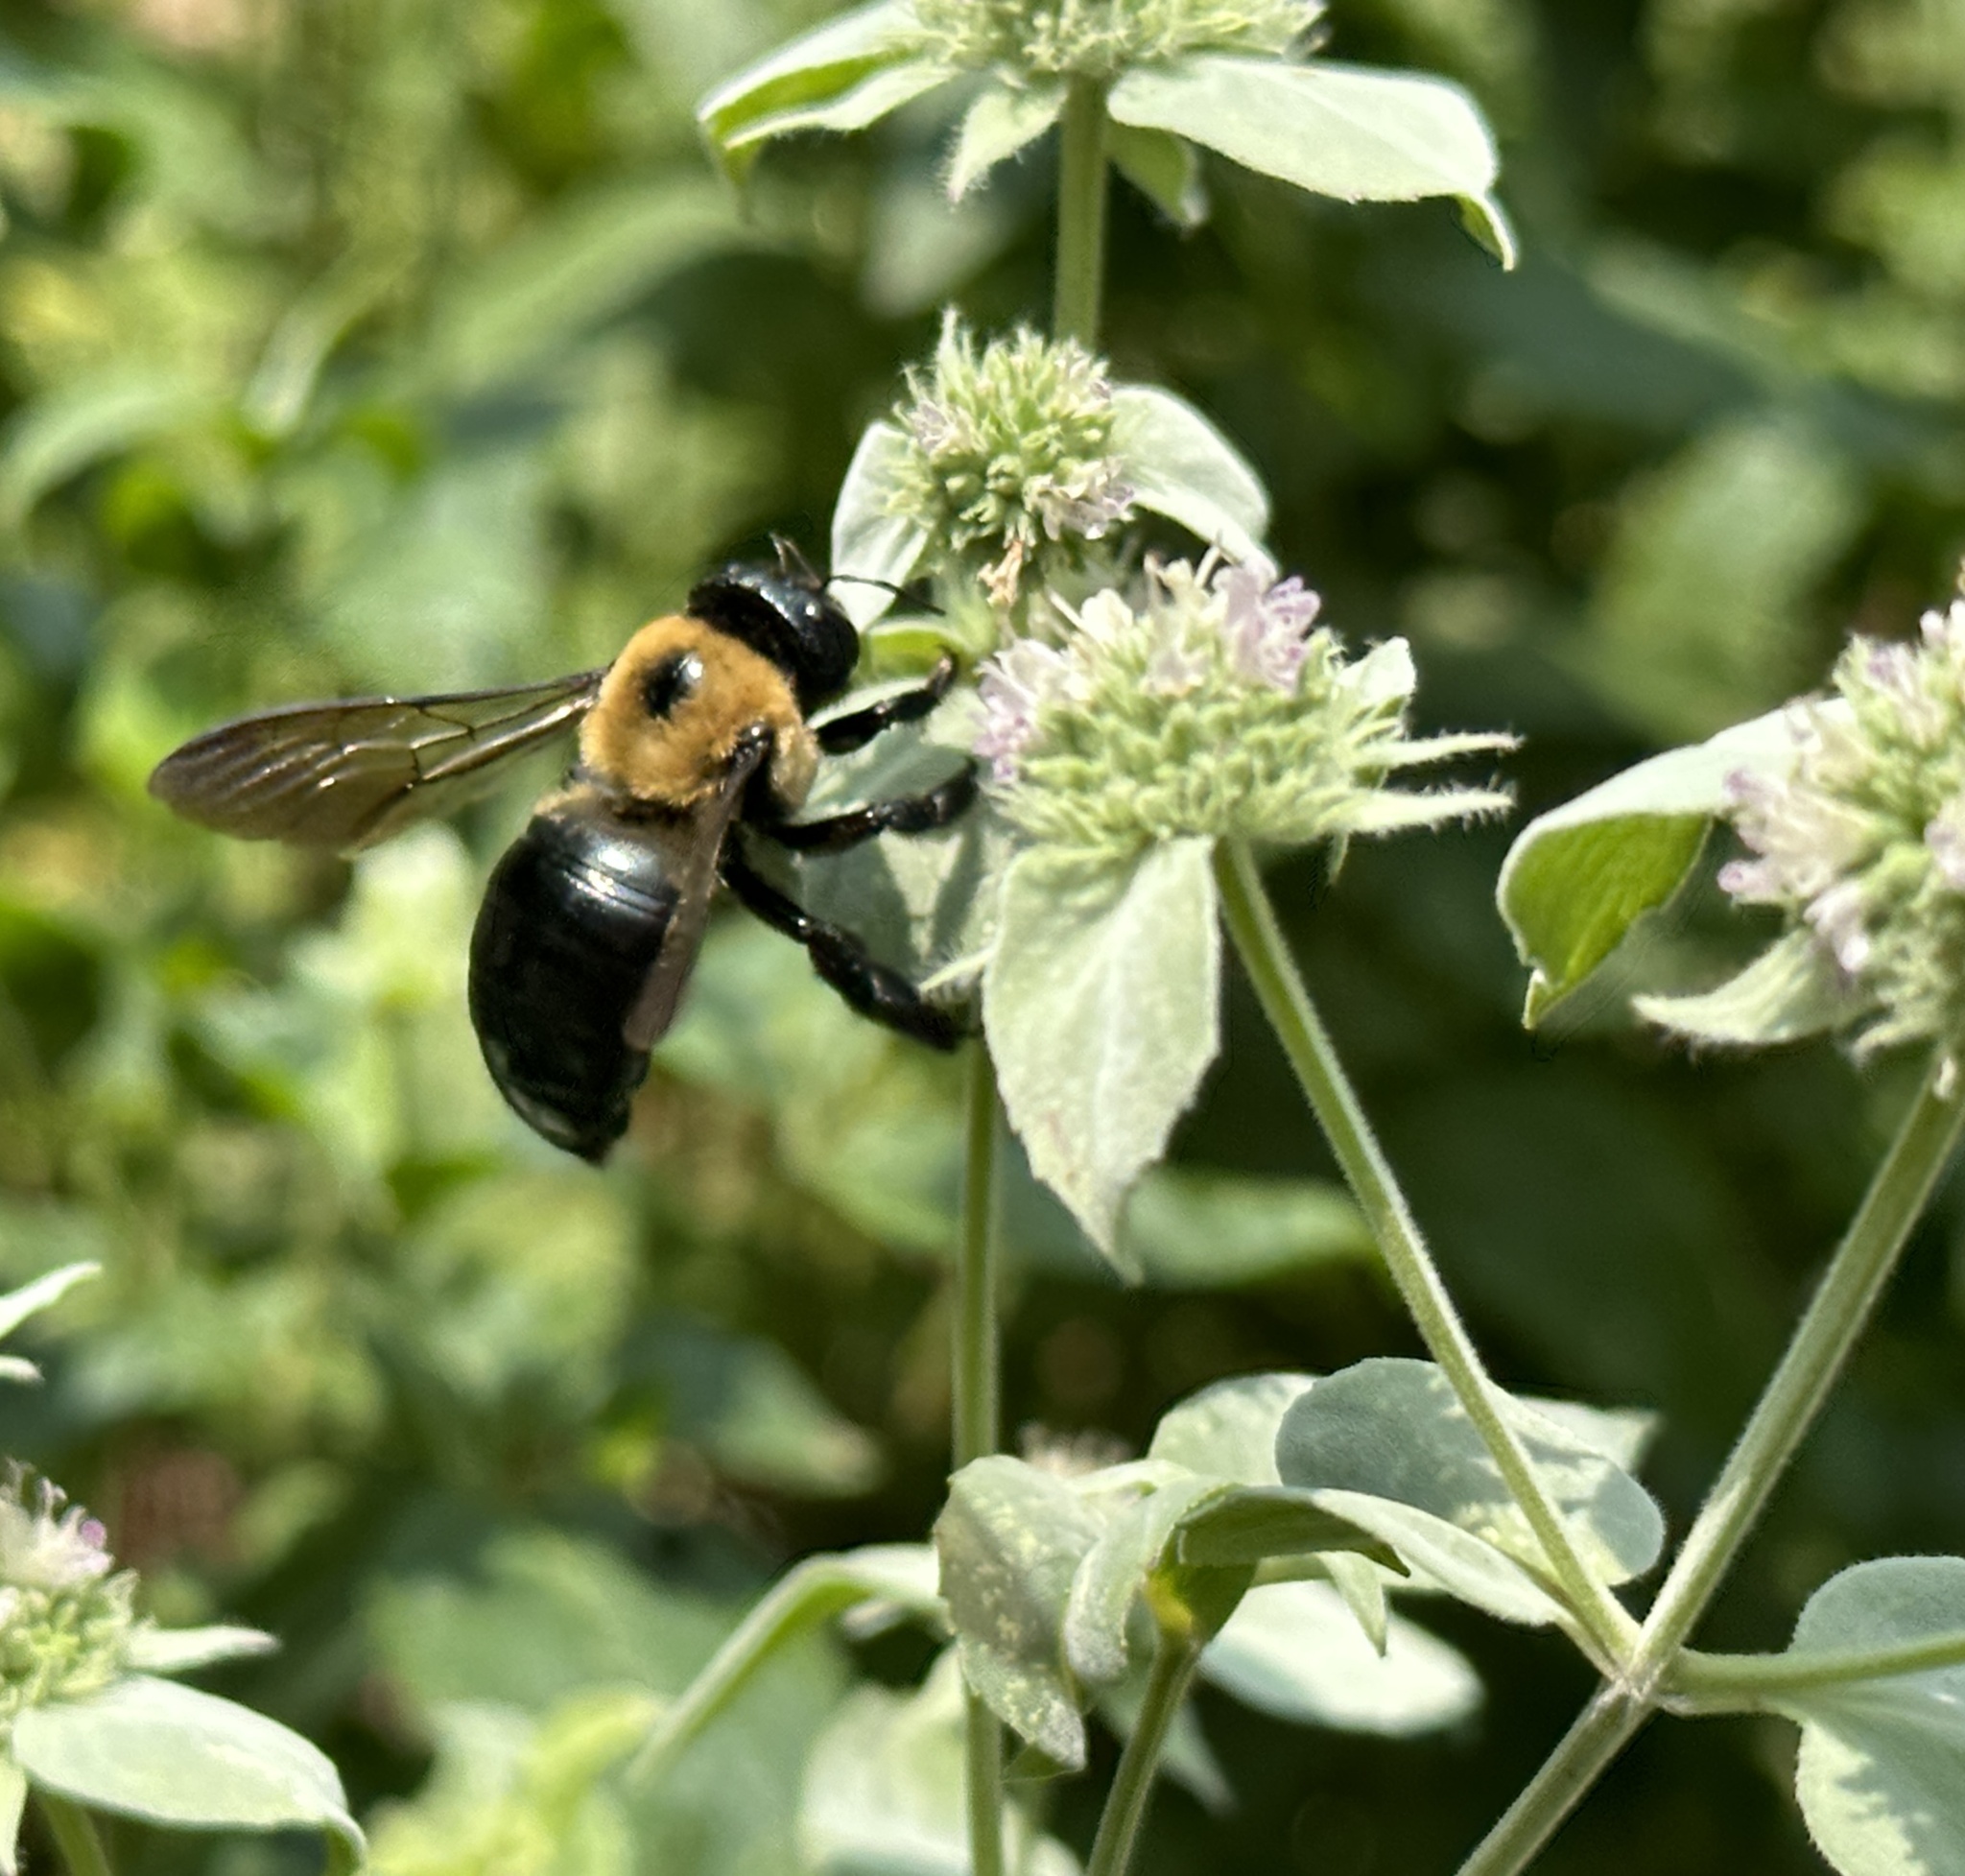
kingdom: Animalia
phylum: Arthropoda
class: Insecta
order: Hymenoptera
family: Apidae
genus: Xylocopa
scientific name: Xylocopa virginica
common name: Carpenter bee
